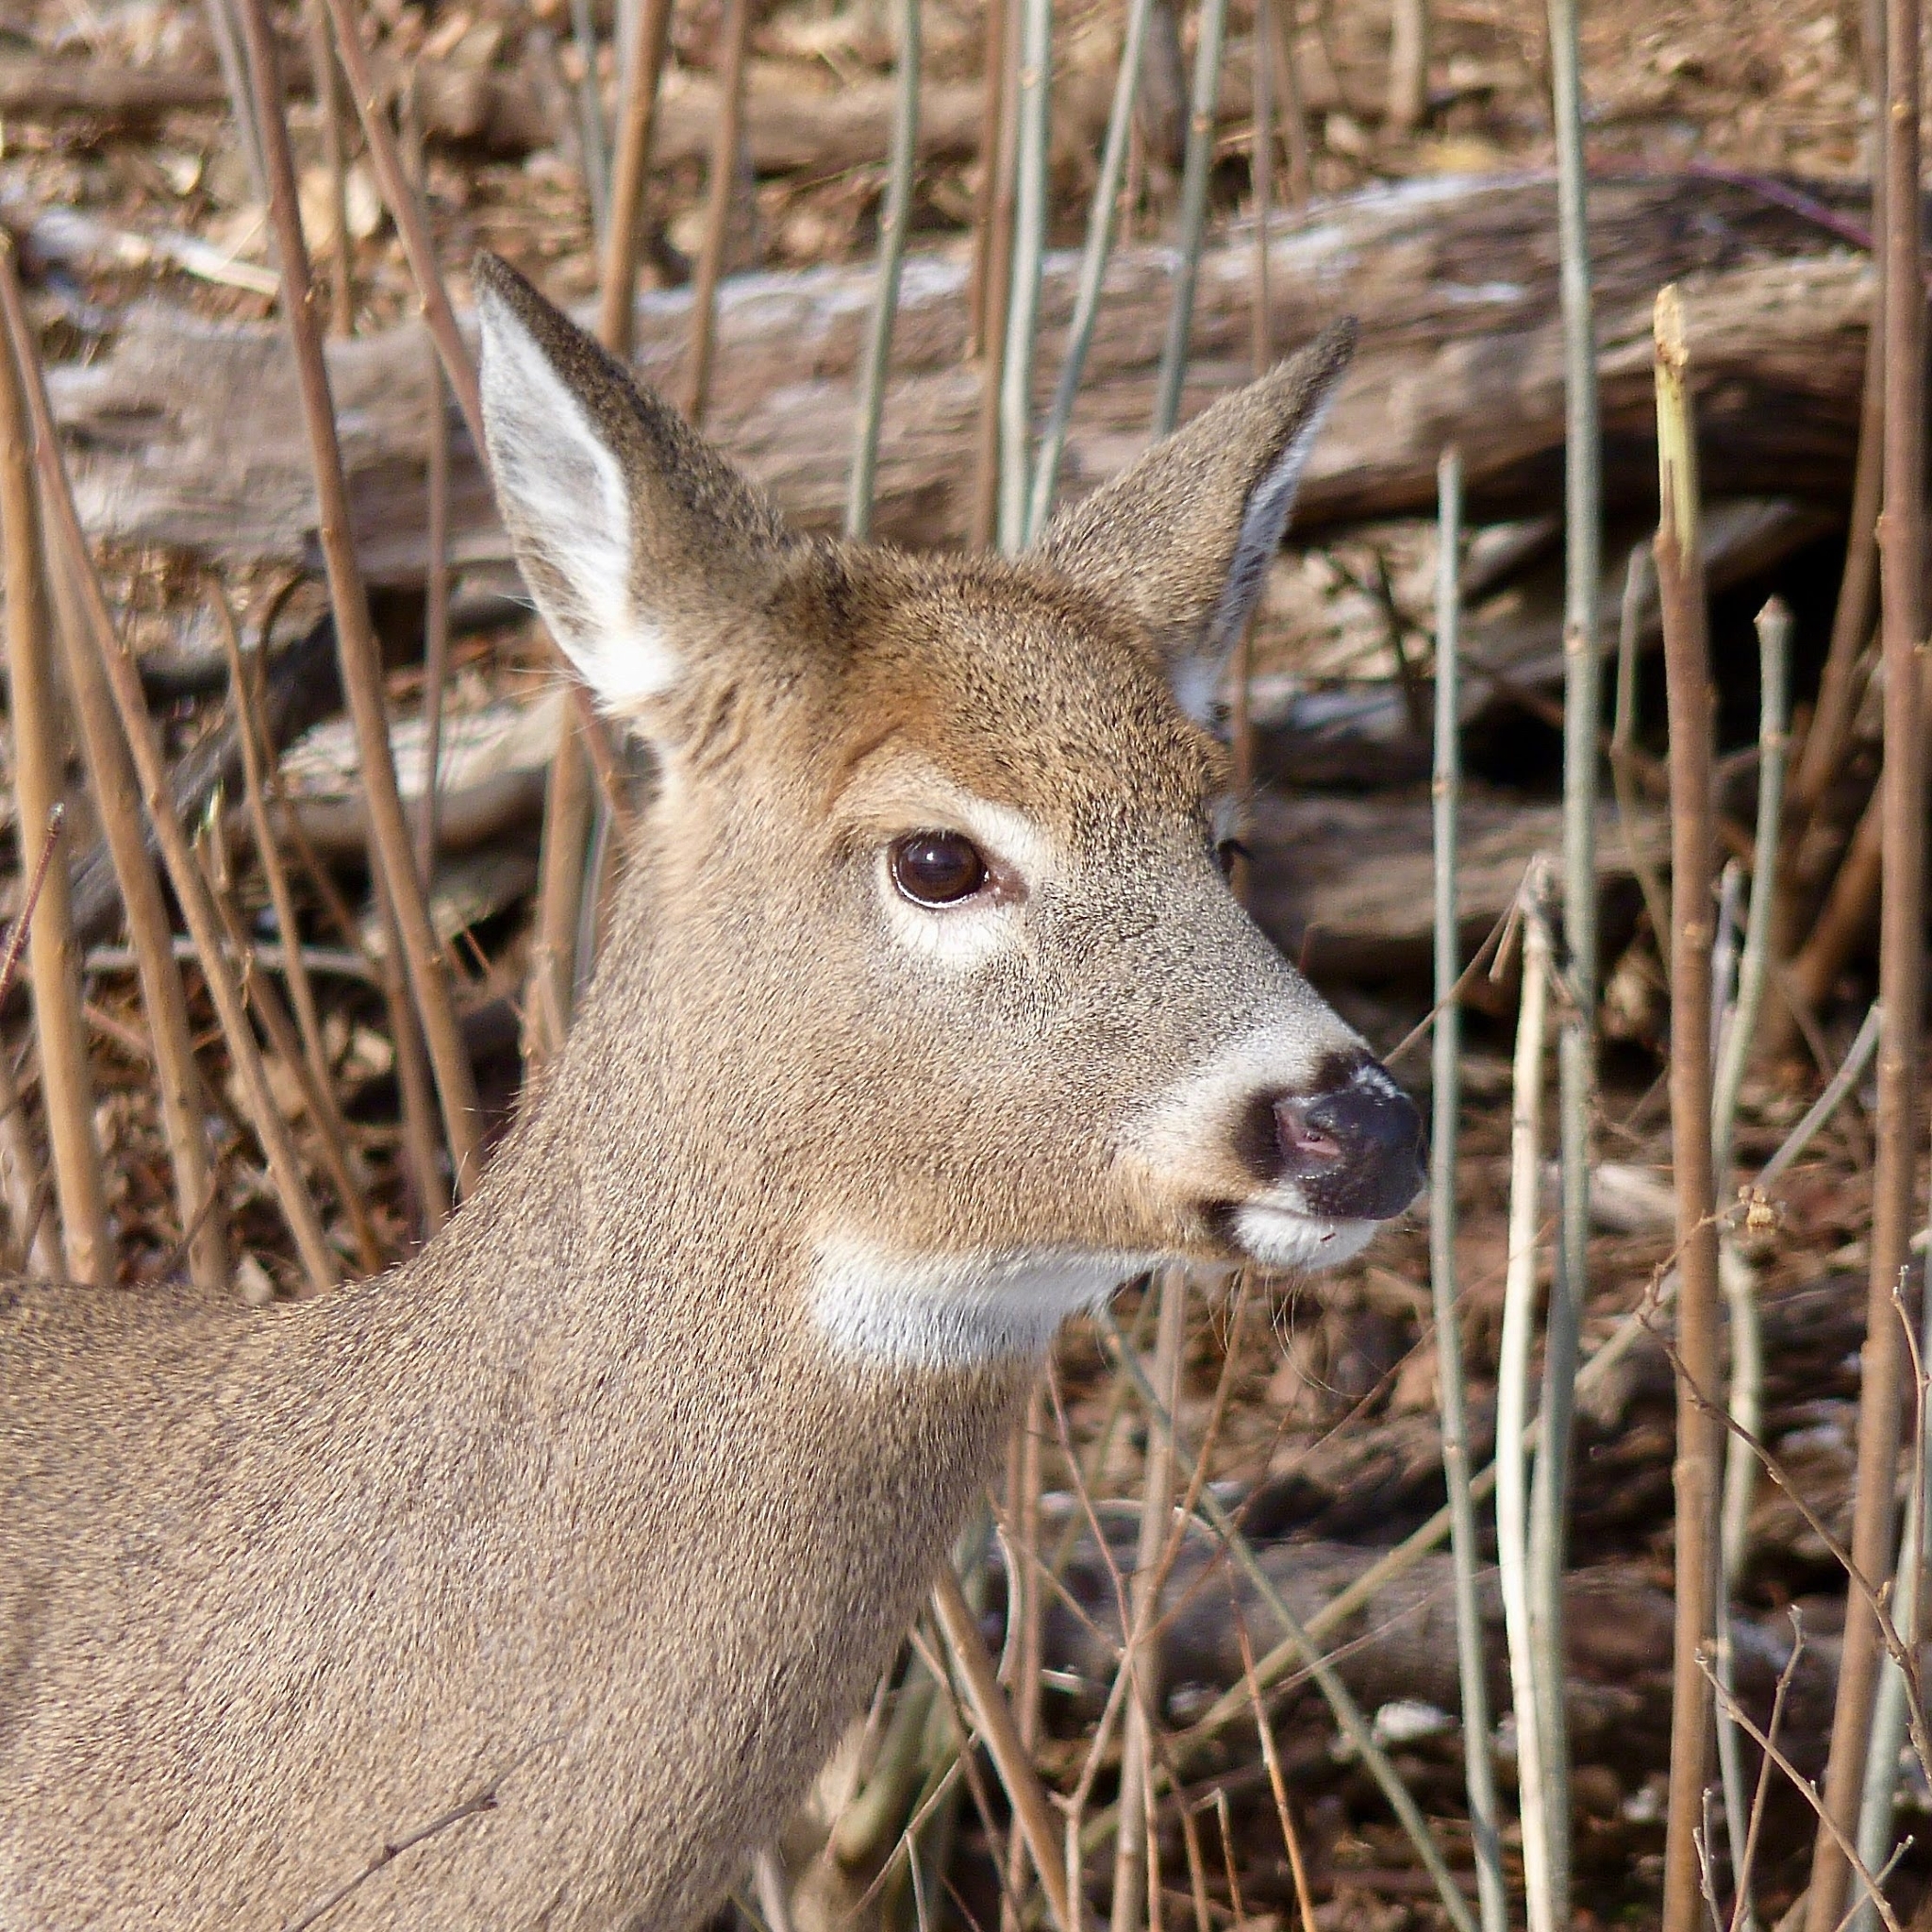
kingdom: Animalia
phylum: Chordata
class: Mammalia
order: Artiodactyla
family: Cervidae
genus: Odocoileus
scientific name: Odocoileus virginianus
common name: White-tailed deer
